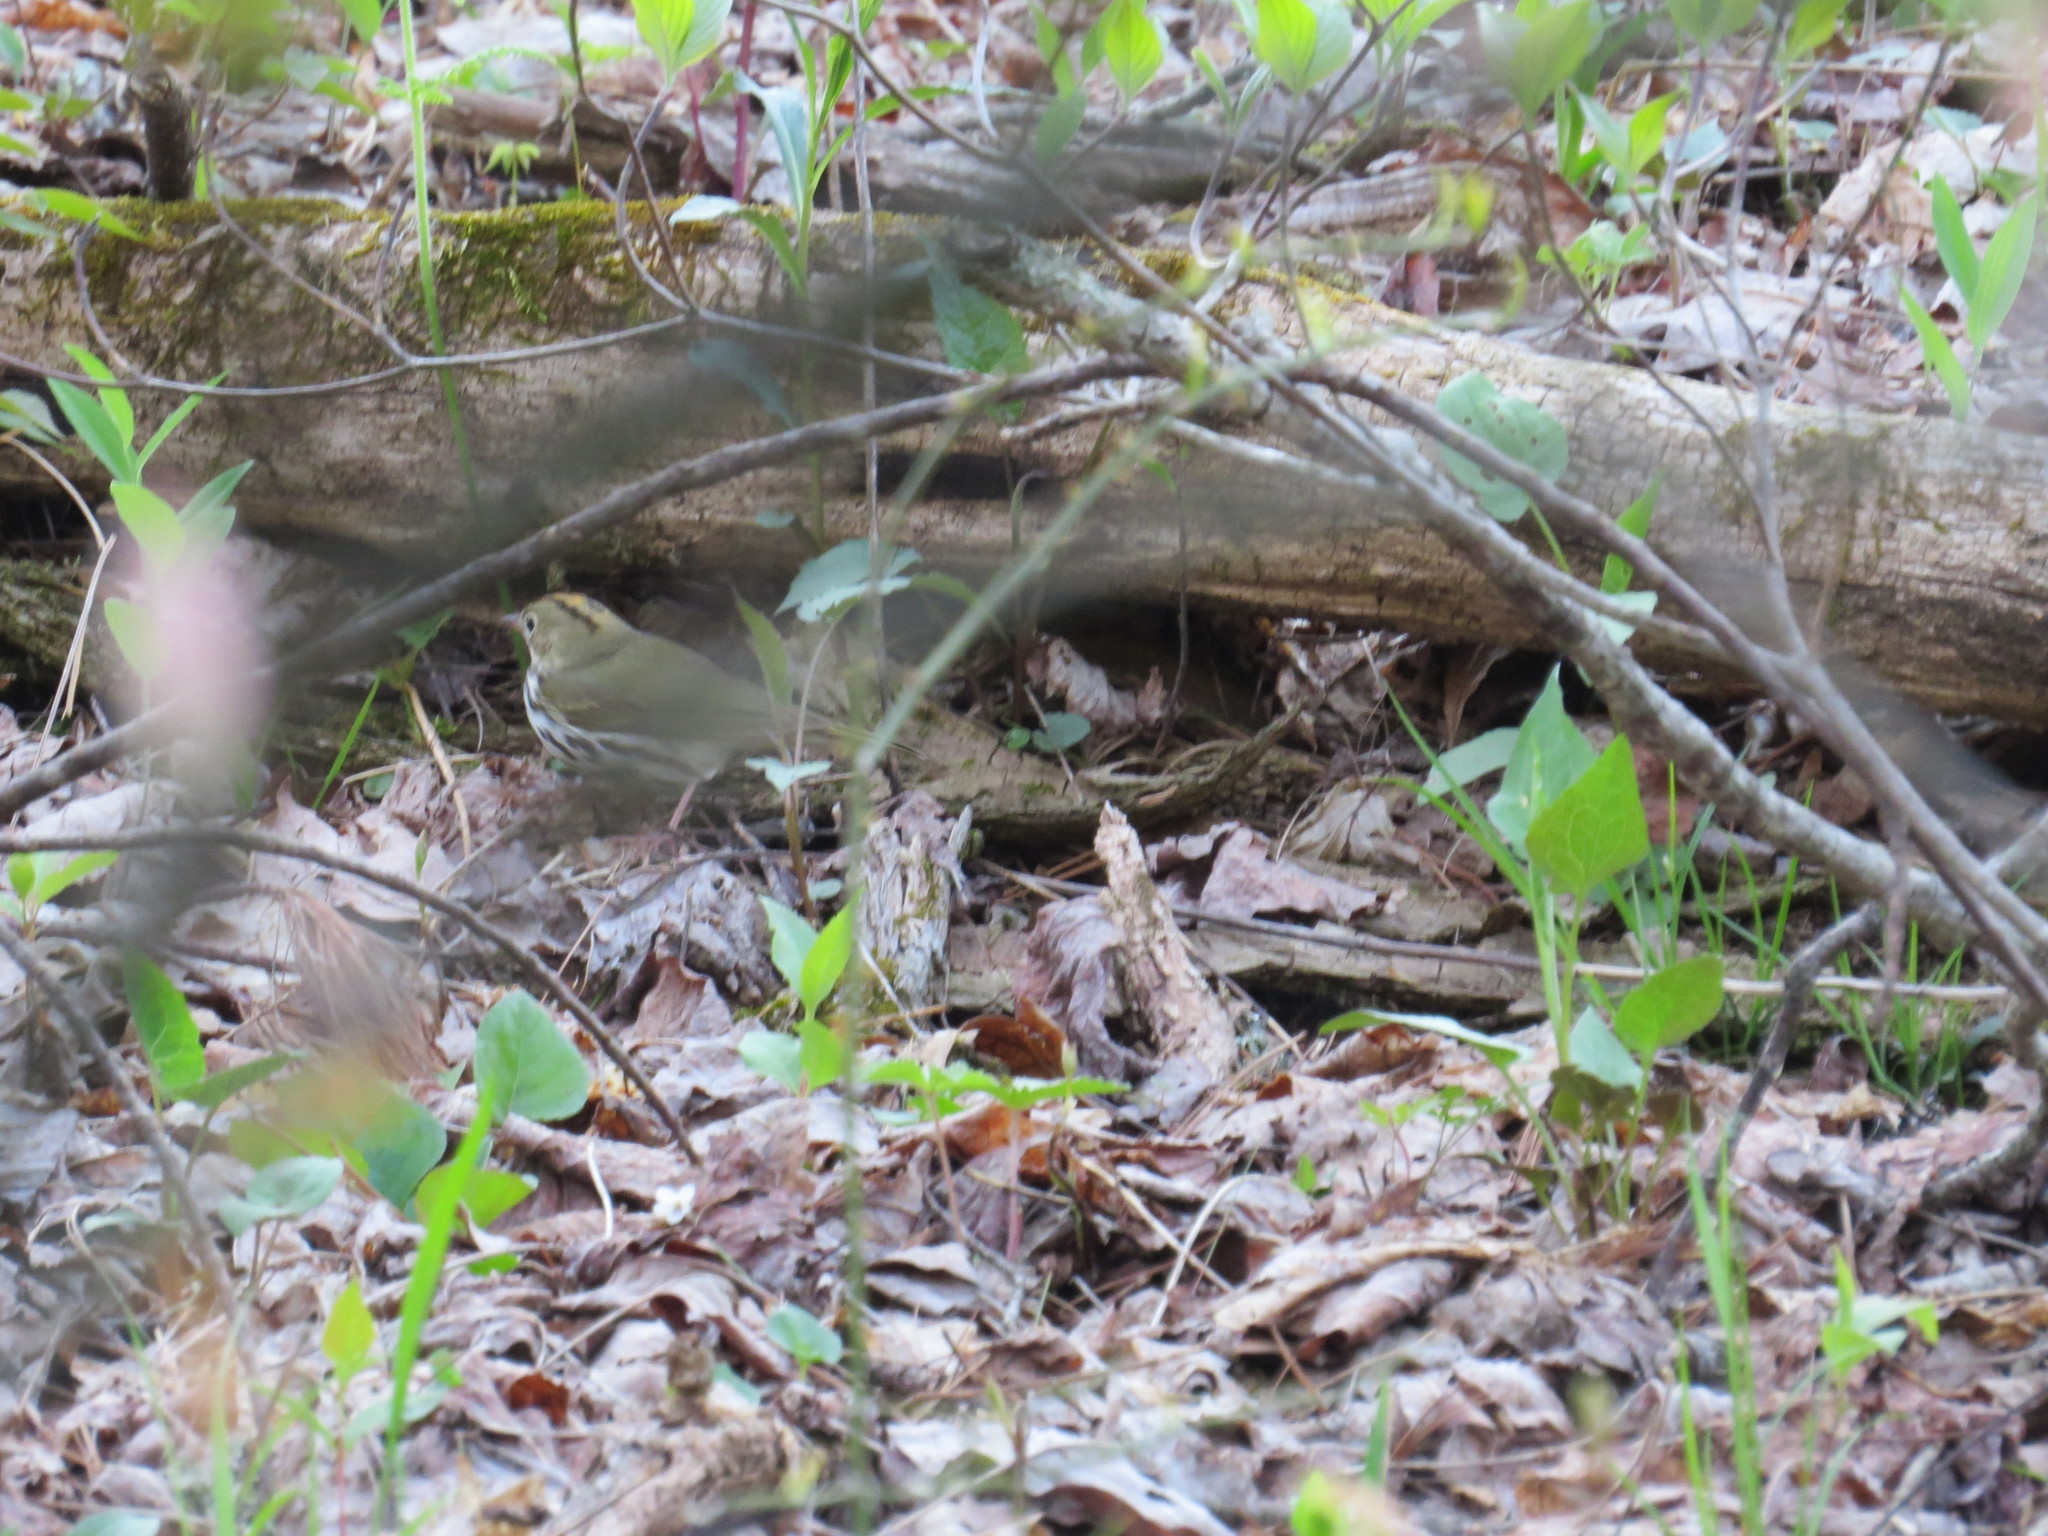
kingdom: Animalia
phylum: Chordata
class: Aves
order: Passeriformes
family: Parulidae
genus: Seiurus
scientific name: Seiurus aurocapilla
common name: Ovenbird
